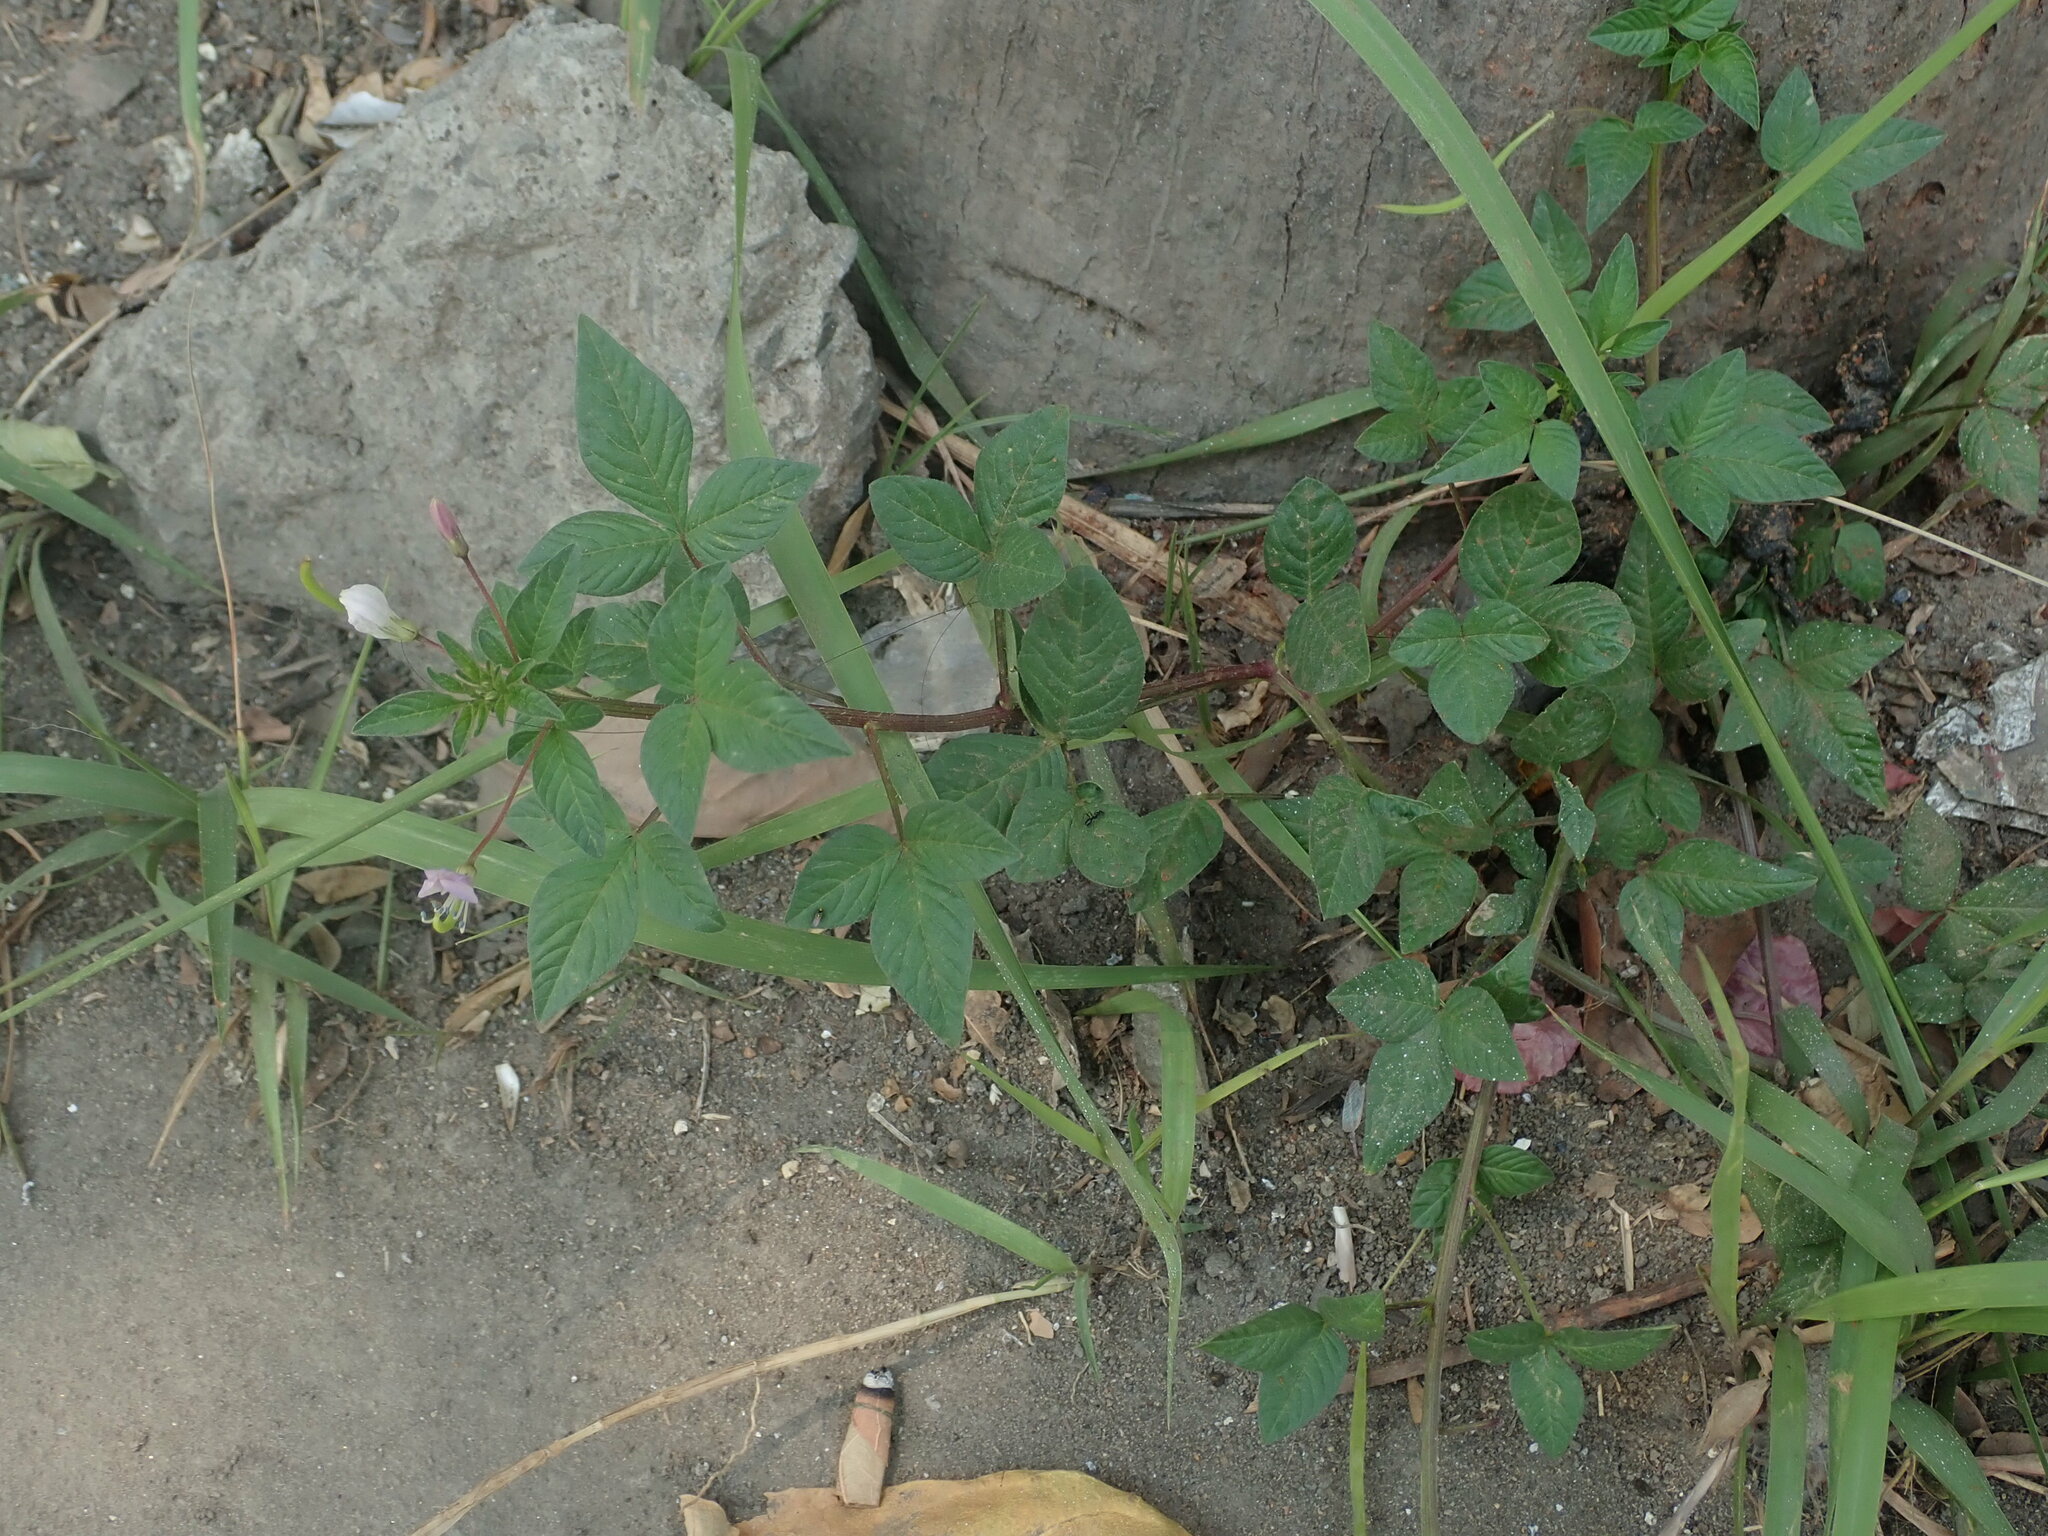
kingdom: Plantae
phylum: Tracheophyta
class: Magnoliopsida
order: Brassicales
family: Cleomaceae
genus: Sieruela
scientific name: Sieruela rutidosperma
